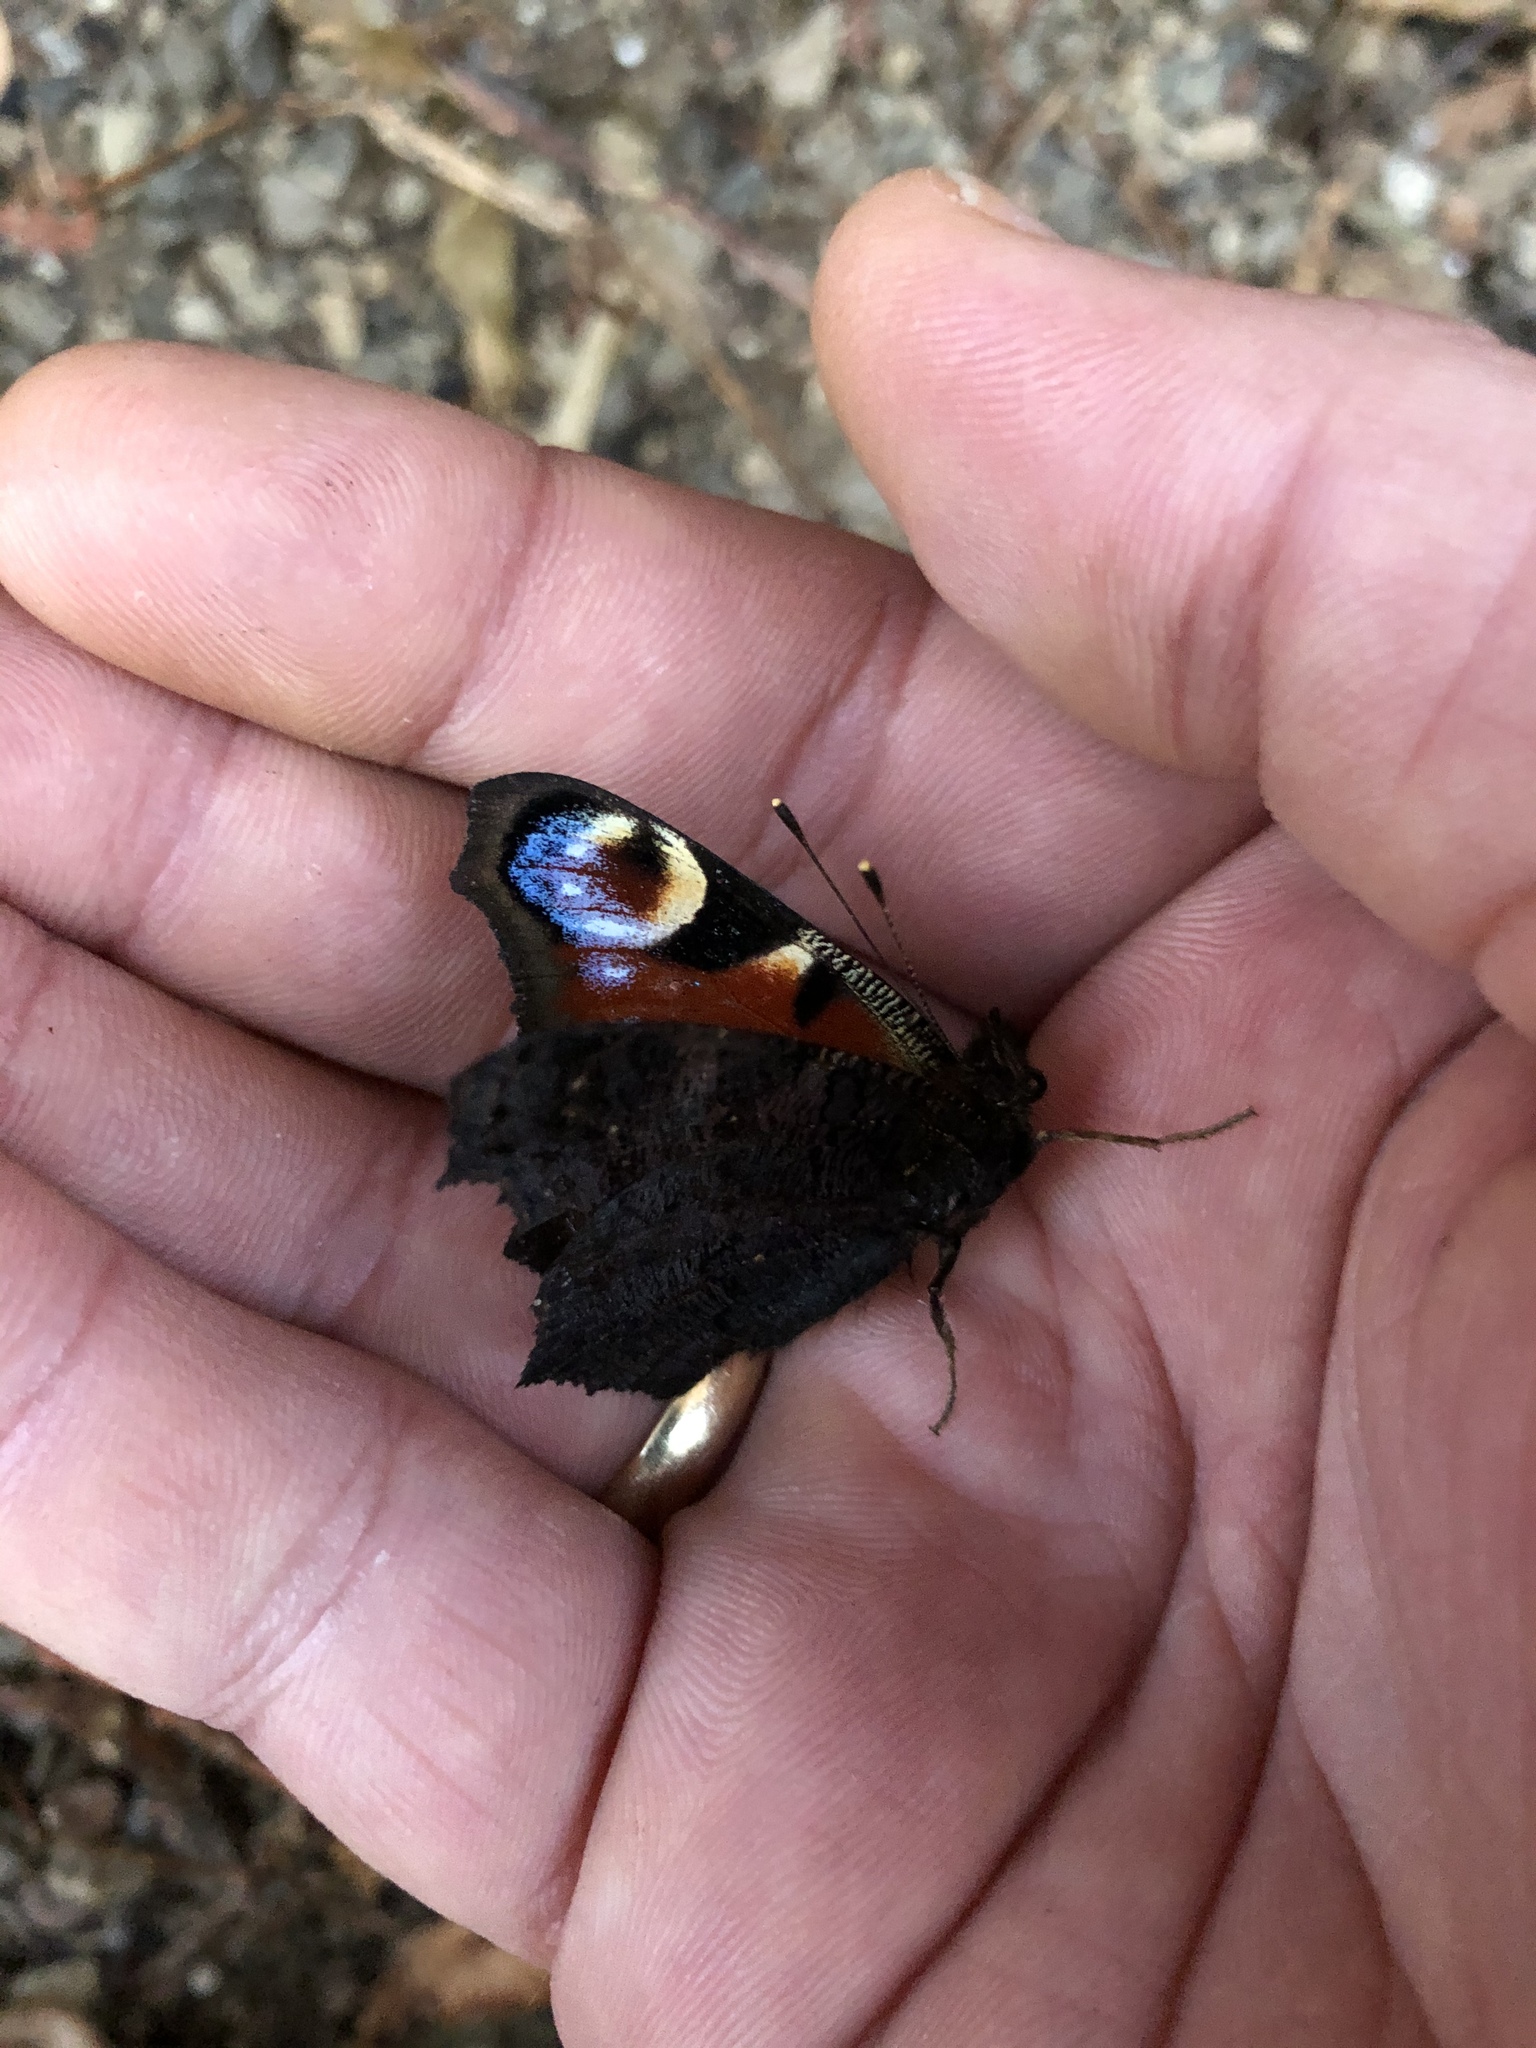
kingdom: Animalia
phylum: Arthropoda
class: Insecta
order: Lepidoptera
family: Nymphalidae
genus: Aglais
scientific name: Aglais io
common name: Peacock
